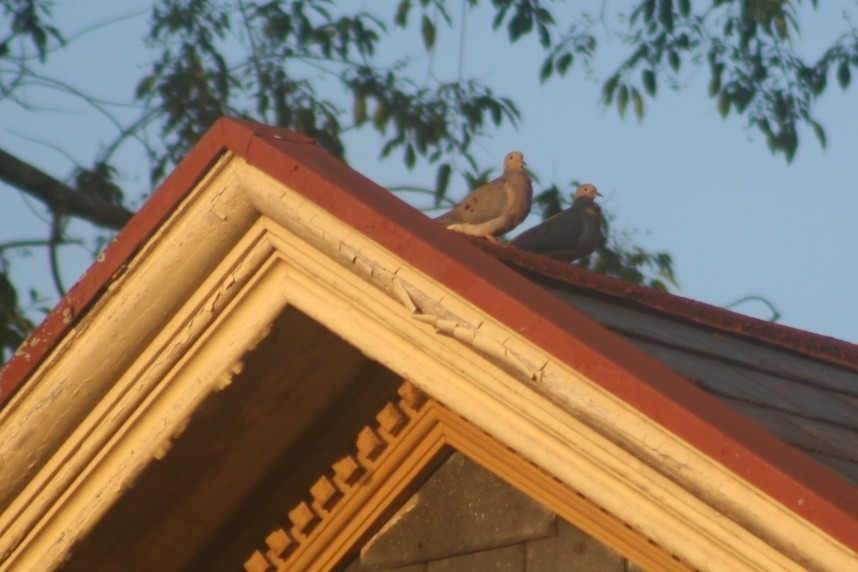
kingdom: Animalia
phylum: Chordata
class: Aves
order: Columbiformes
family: Columbidae
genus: Zenaida
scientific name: Zenaida macroura
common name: Mourning dove
